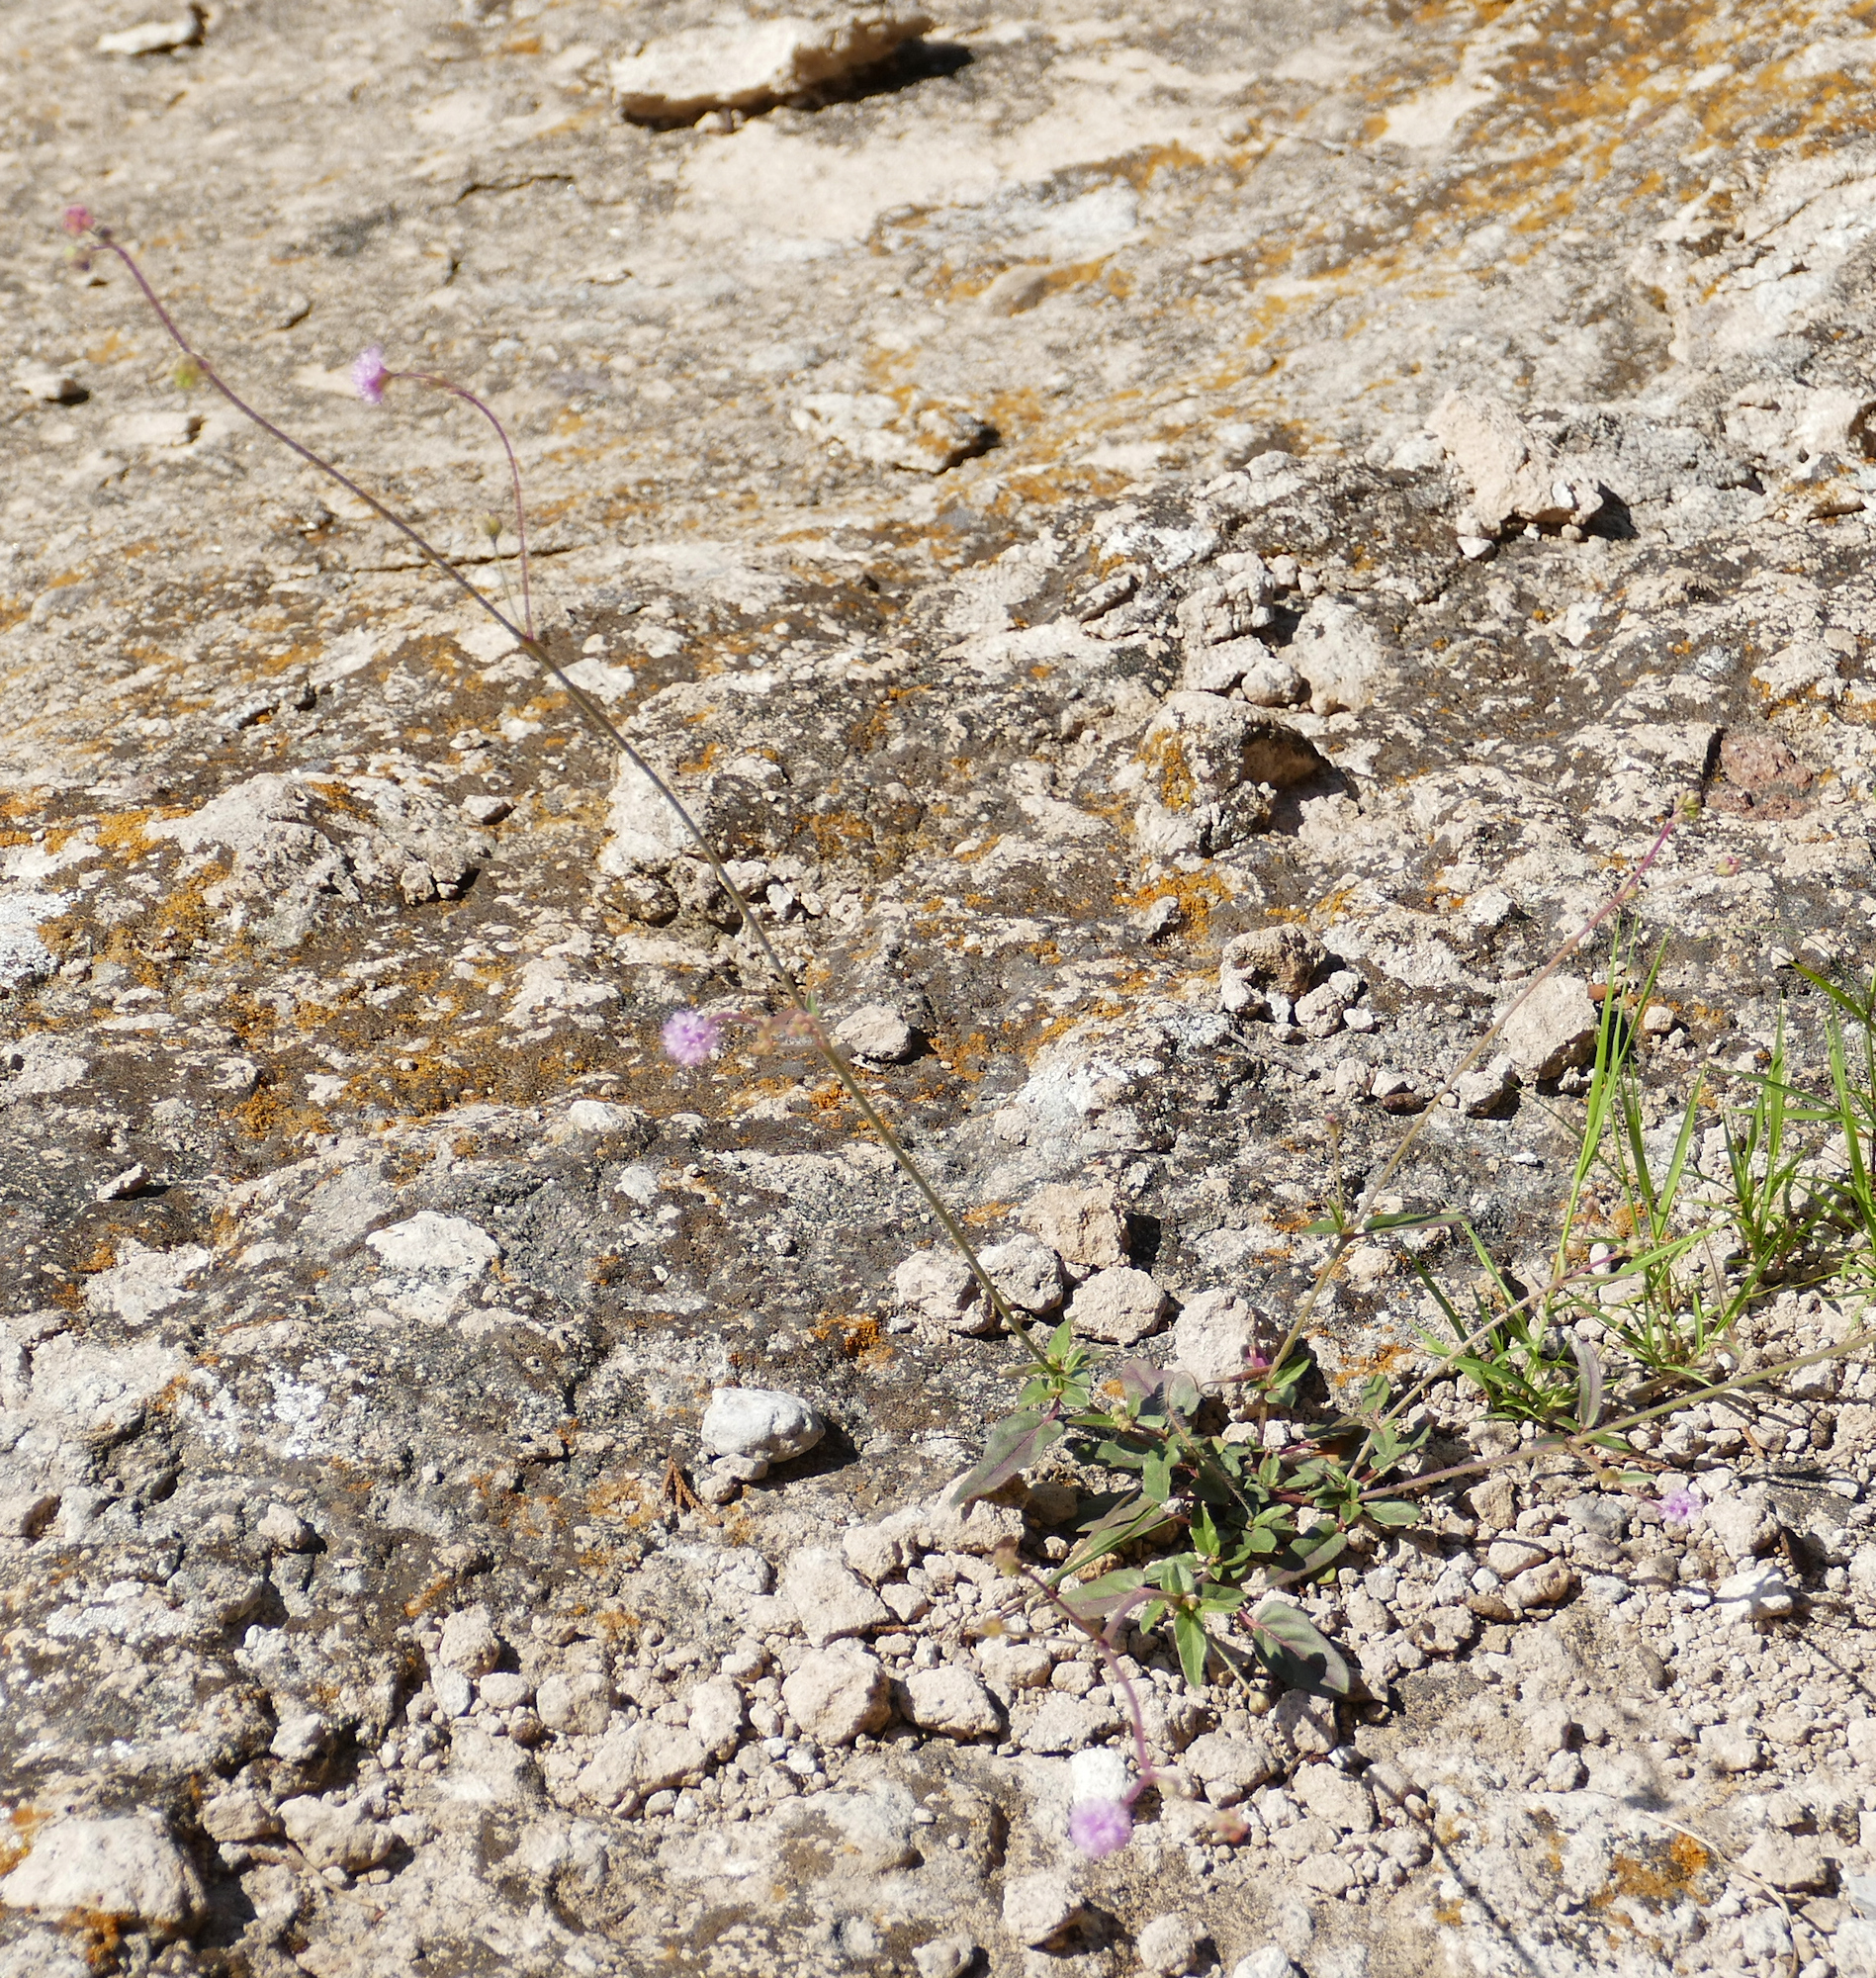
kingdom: Plantae
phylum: Tracheophyta
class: Magnoliopsida
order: Caryophyllales
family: Nyctaginaceae
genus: Boerhavia
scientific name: Boerhavia purpurascens
